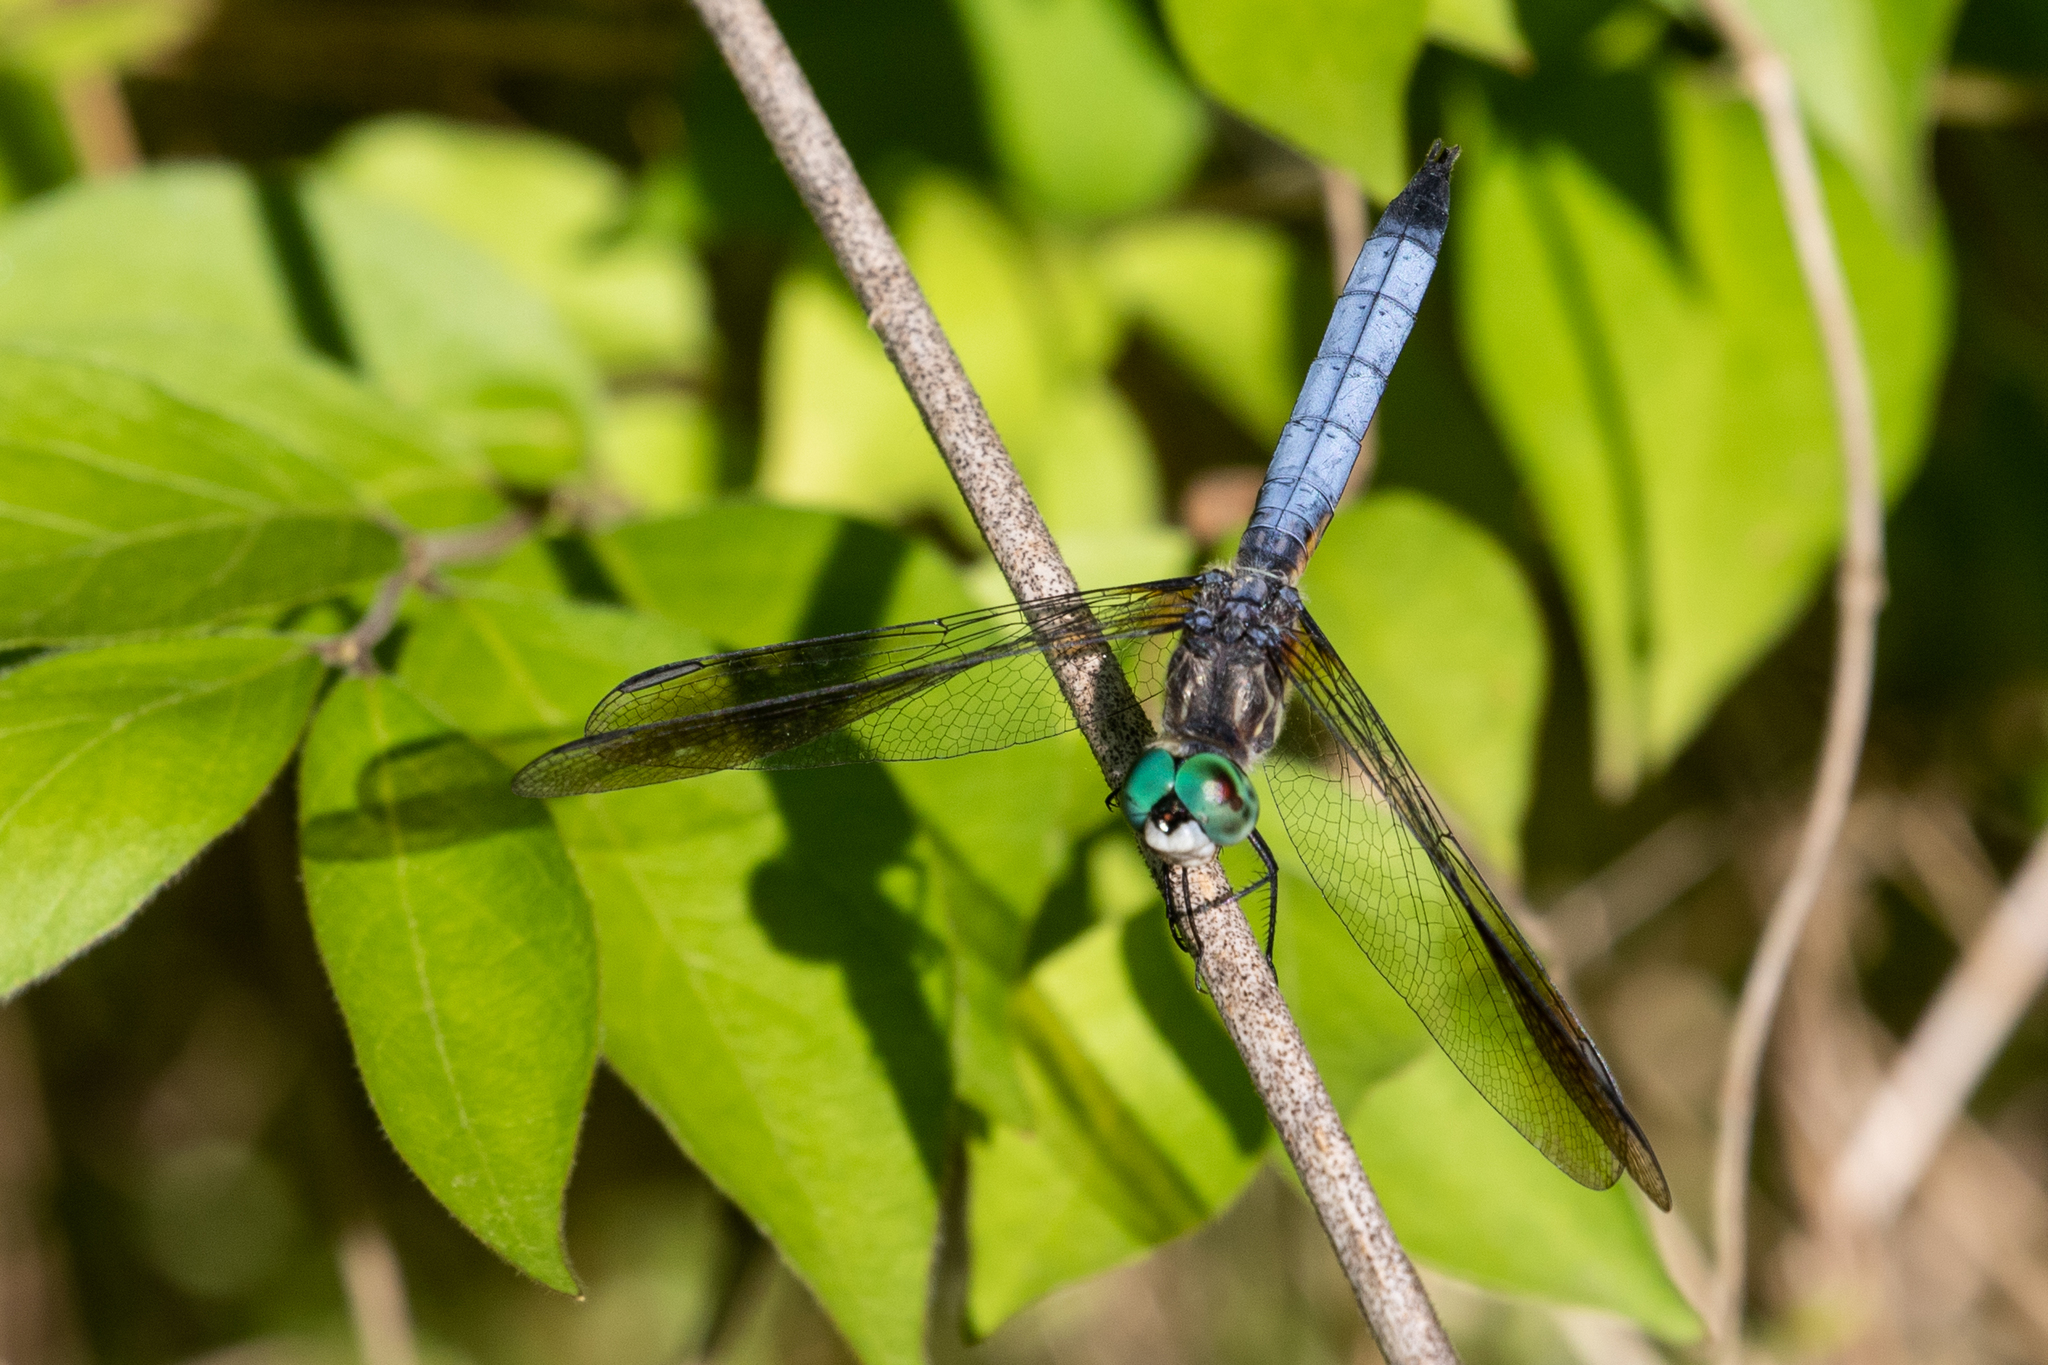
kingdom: Animalia
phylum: Arthropoda
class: Insecta
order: Odonata
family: Libellulidae
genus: Pachydiplax
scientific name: Pachydiplax longipennis
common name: Blue dasher
